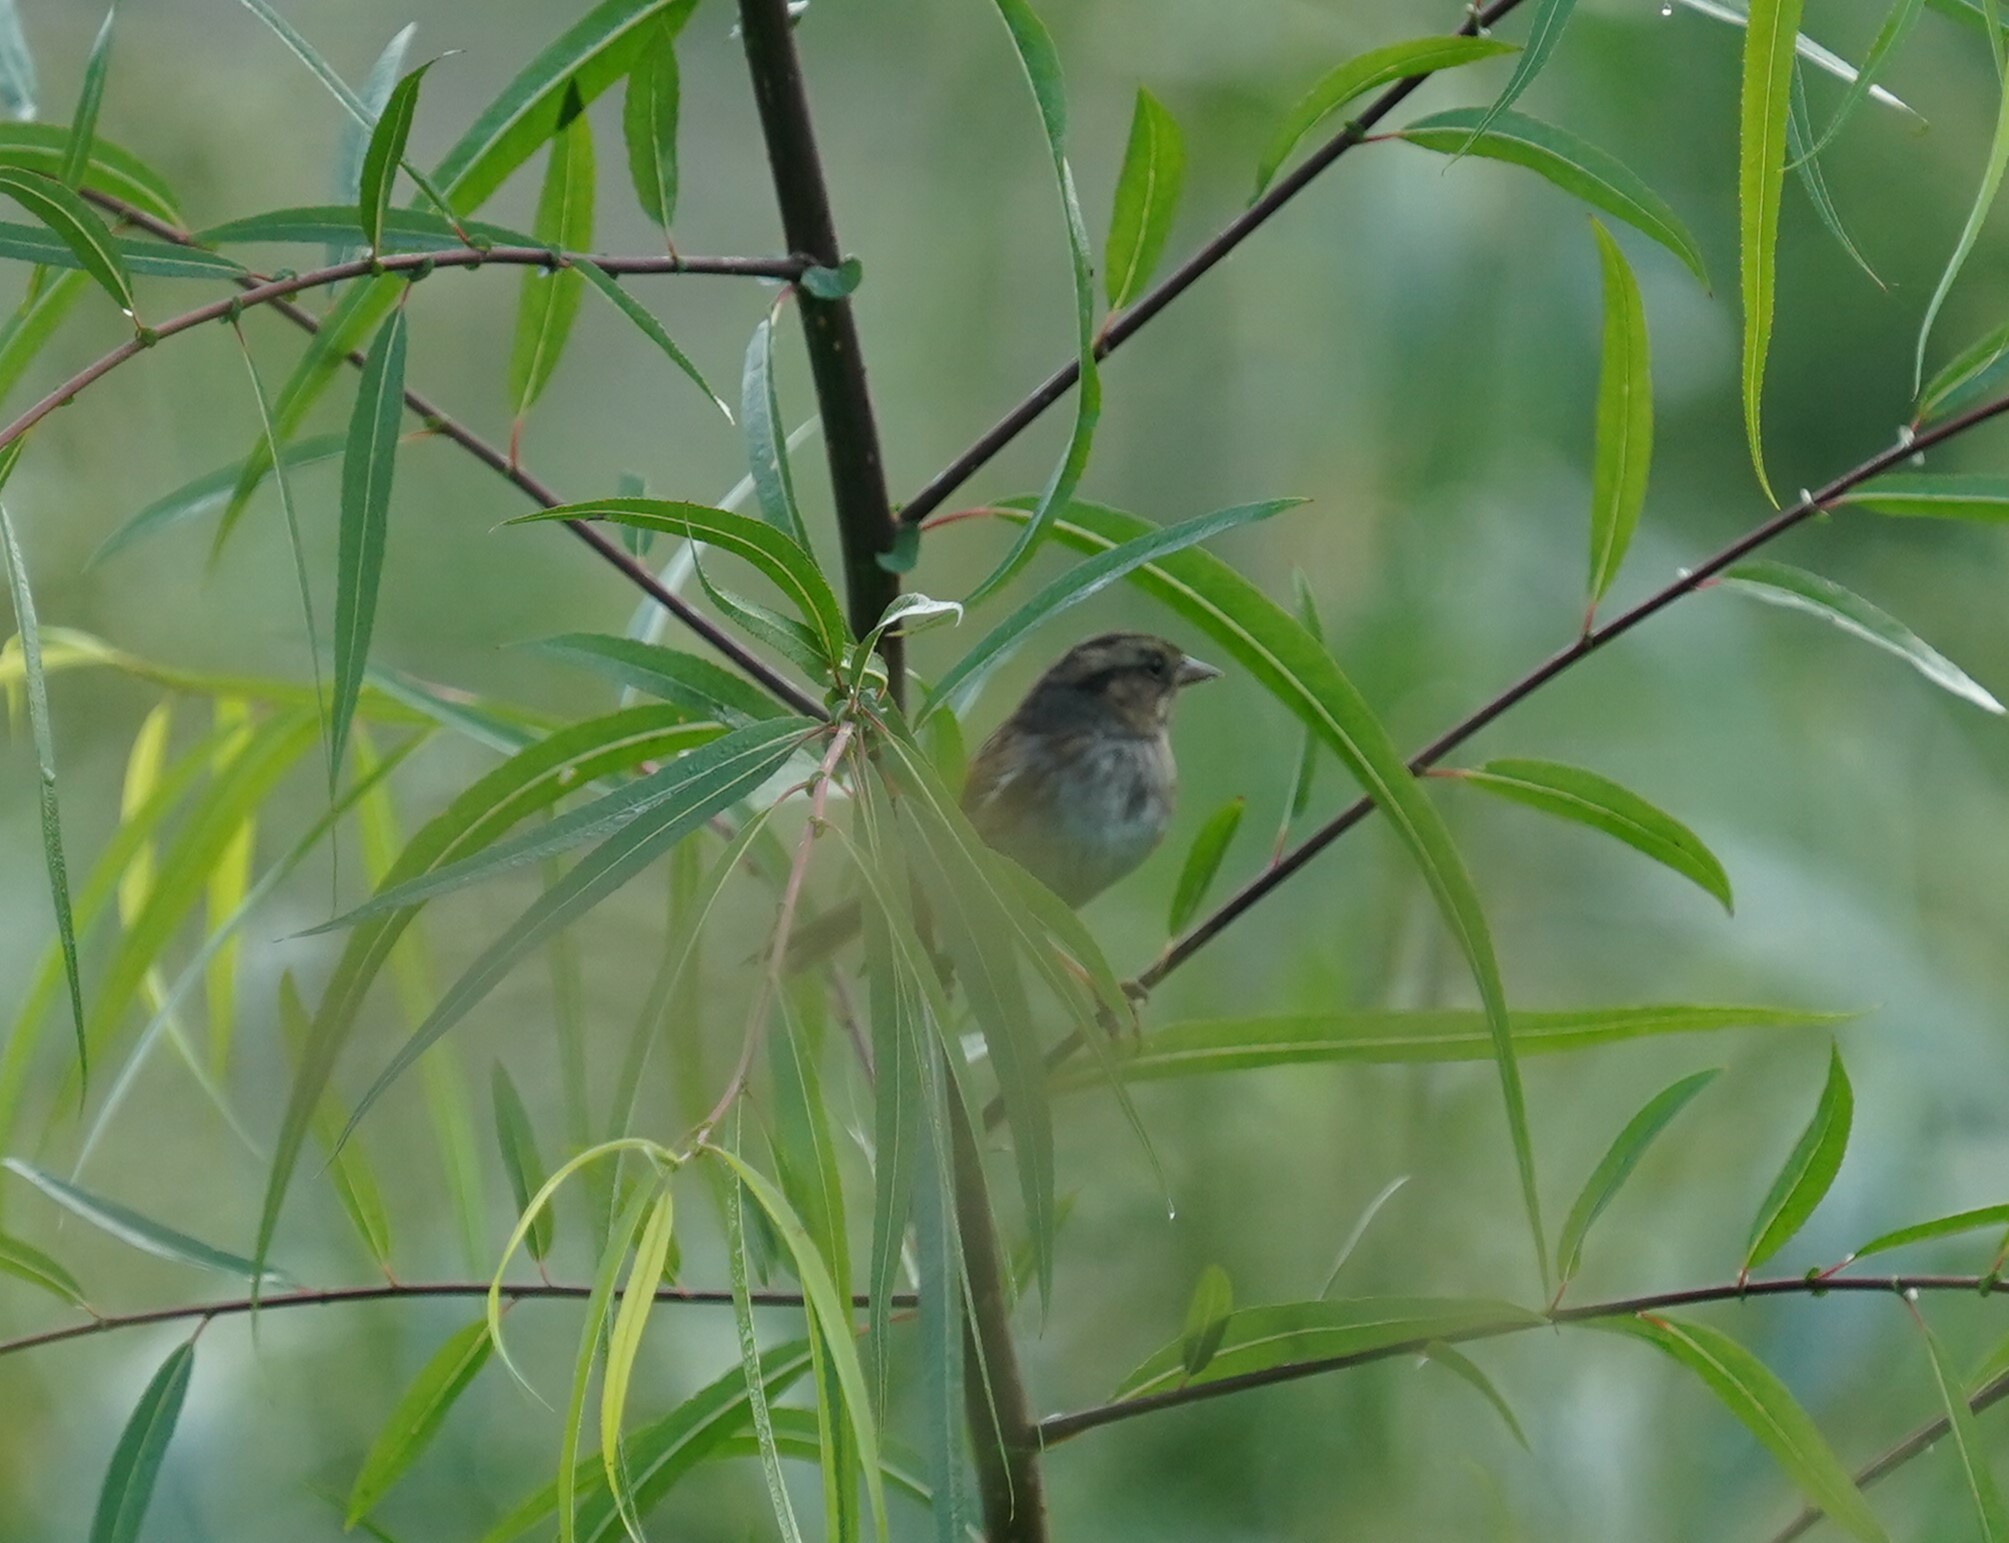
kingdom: Animalia
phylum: Chordata
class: Aves
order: Passeriformes
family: Passerellidae
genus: Melospiza
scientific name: Melospiza georgiana
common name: Swamp sparrow
